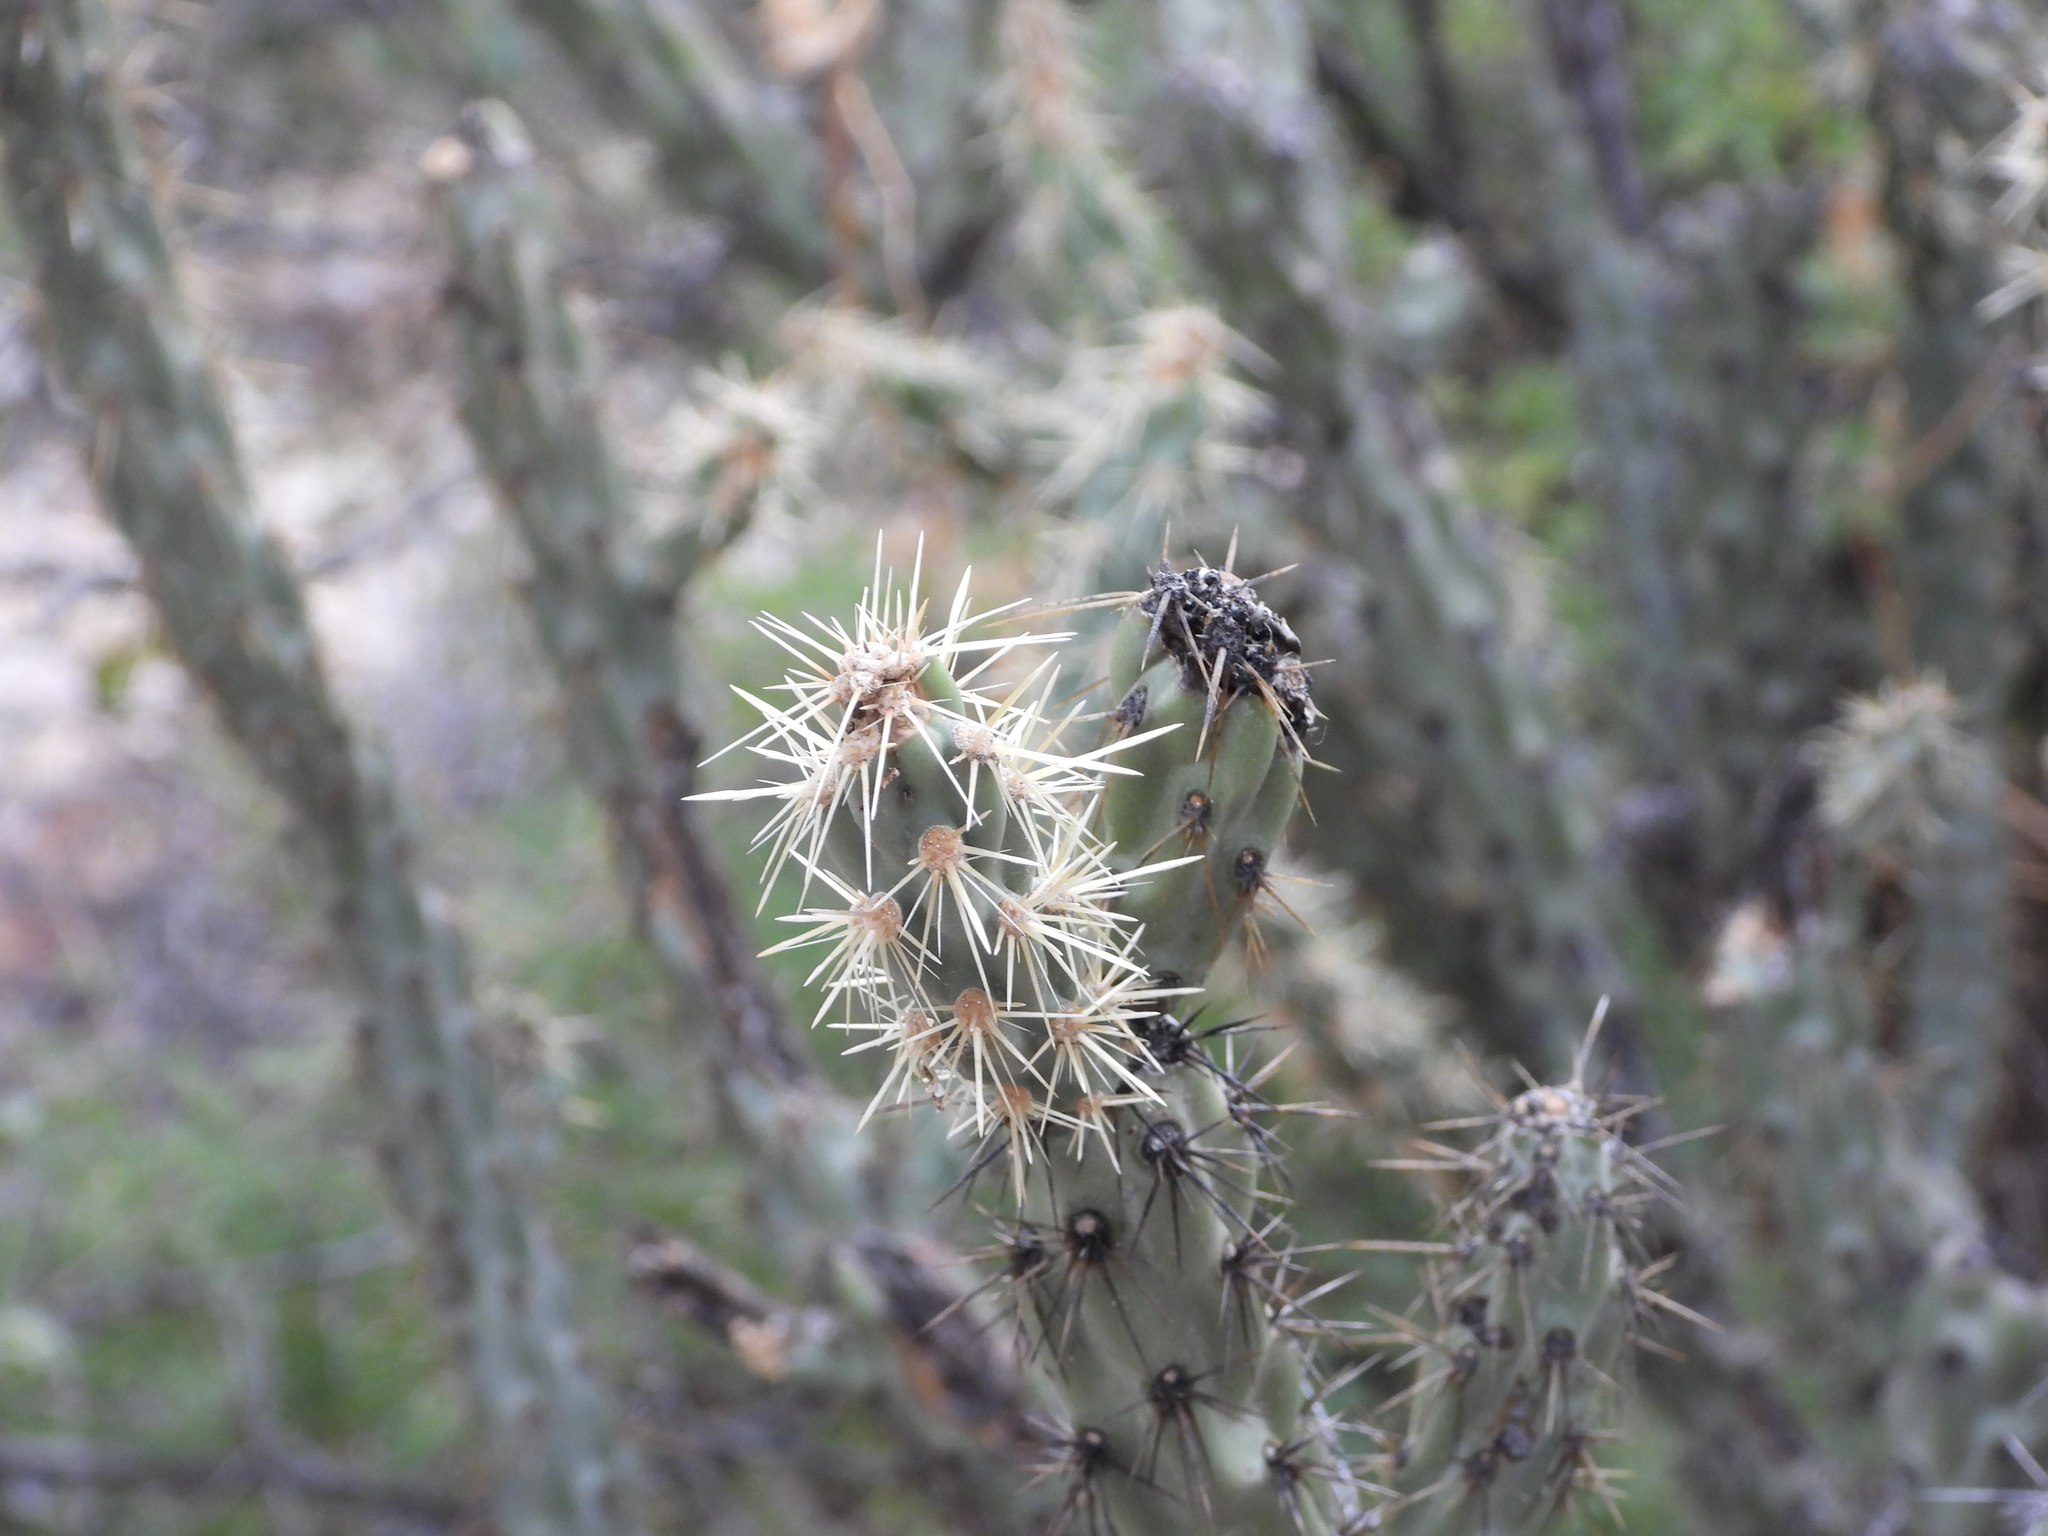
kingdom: Plantae
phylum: Tracheophyta
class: Magnoliopsida
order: Caryophyllales
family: Cactaceae
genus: Cylindropuntia
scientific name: Cylindropuntia acanthocarpa
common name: Buckhorn cholla
